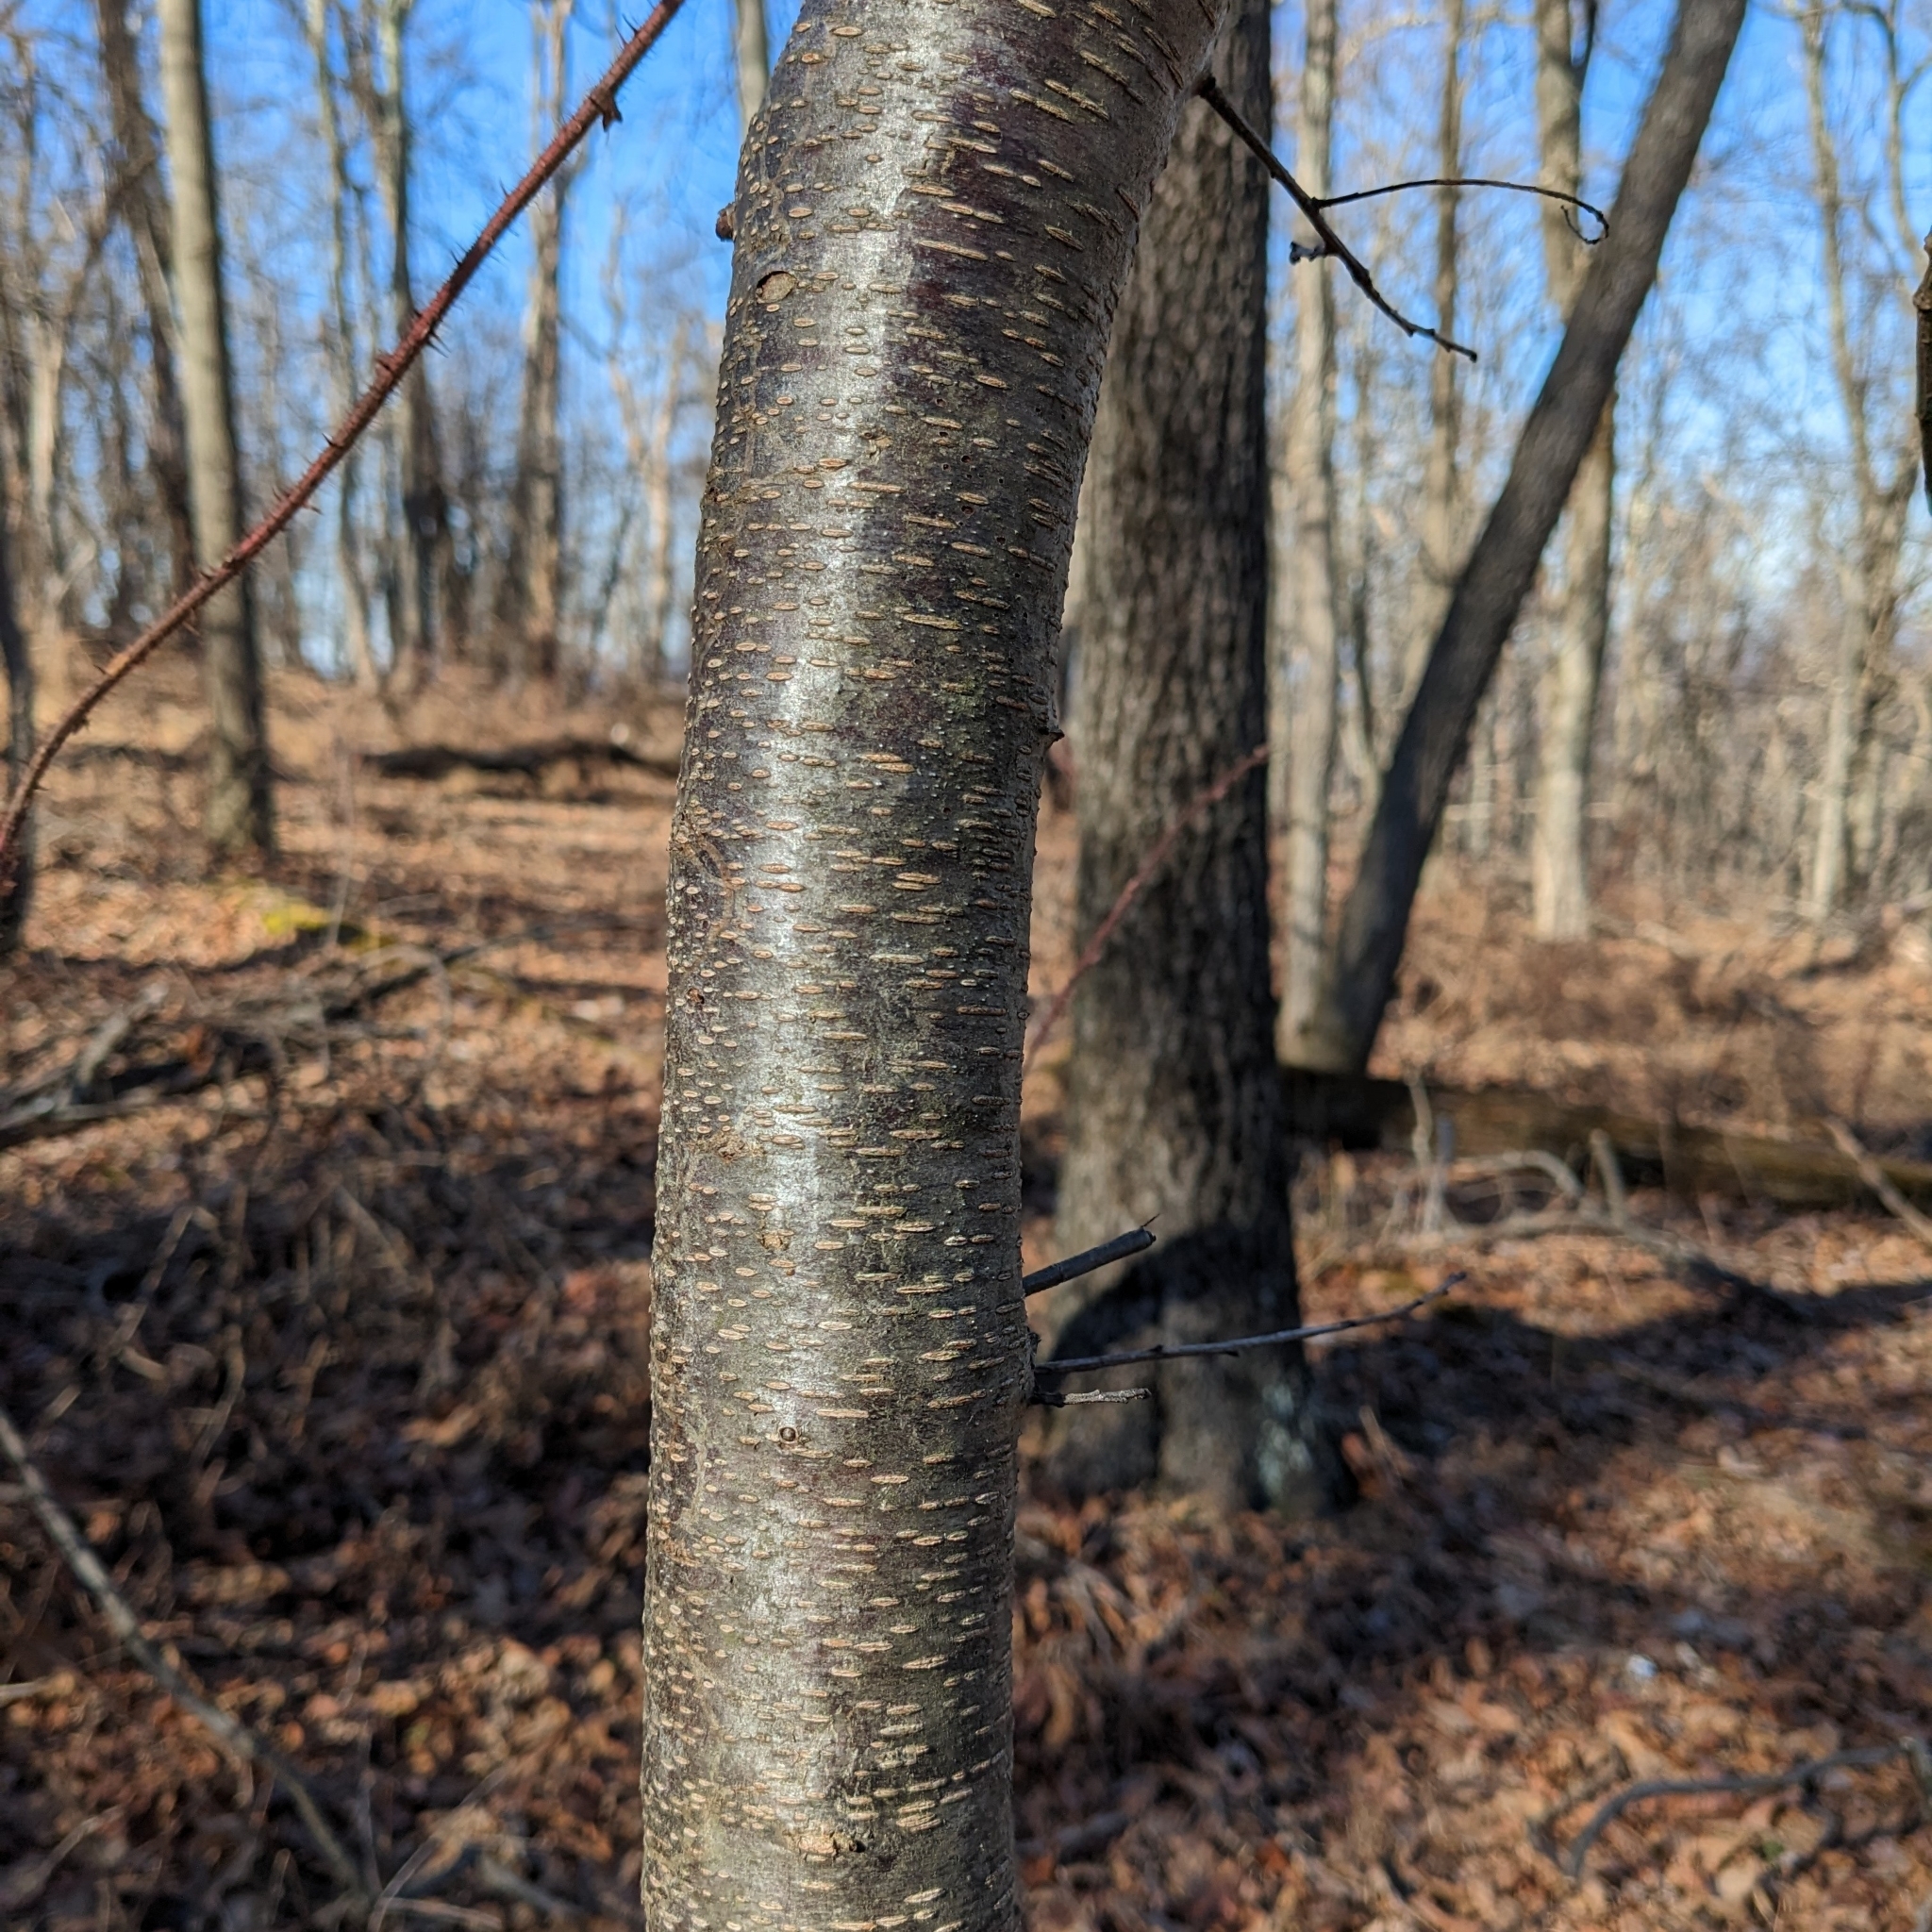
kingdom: Fungi
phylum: Ascomycota
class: Dothideomycetes
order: Venturiales
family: Venturiaceae
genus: Apiosporina
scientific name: Apiosporina morbosa
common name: Black knot
